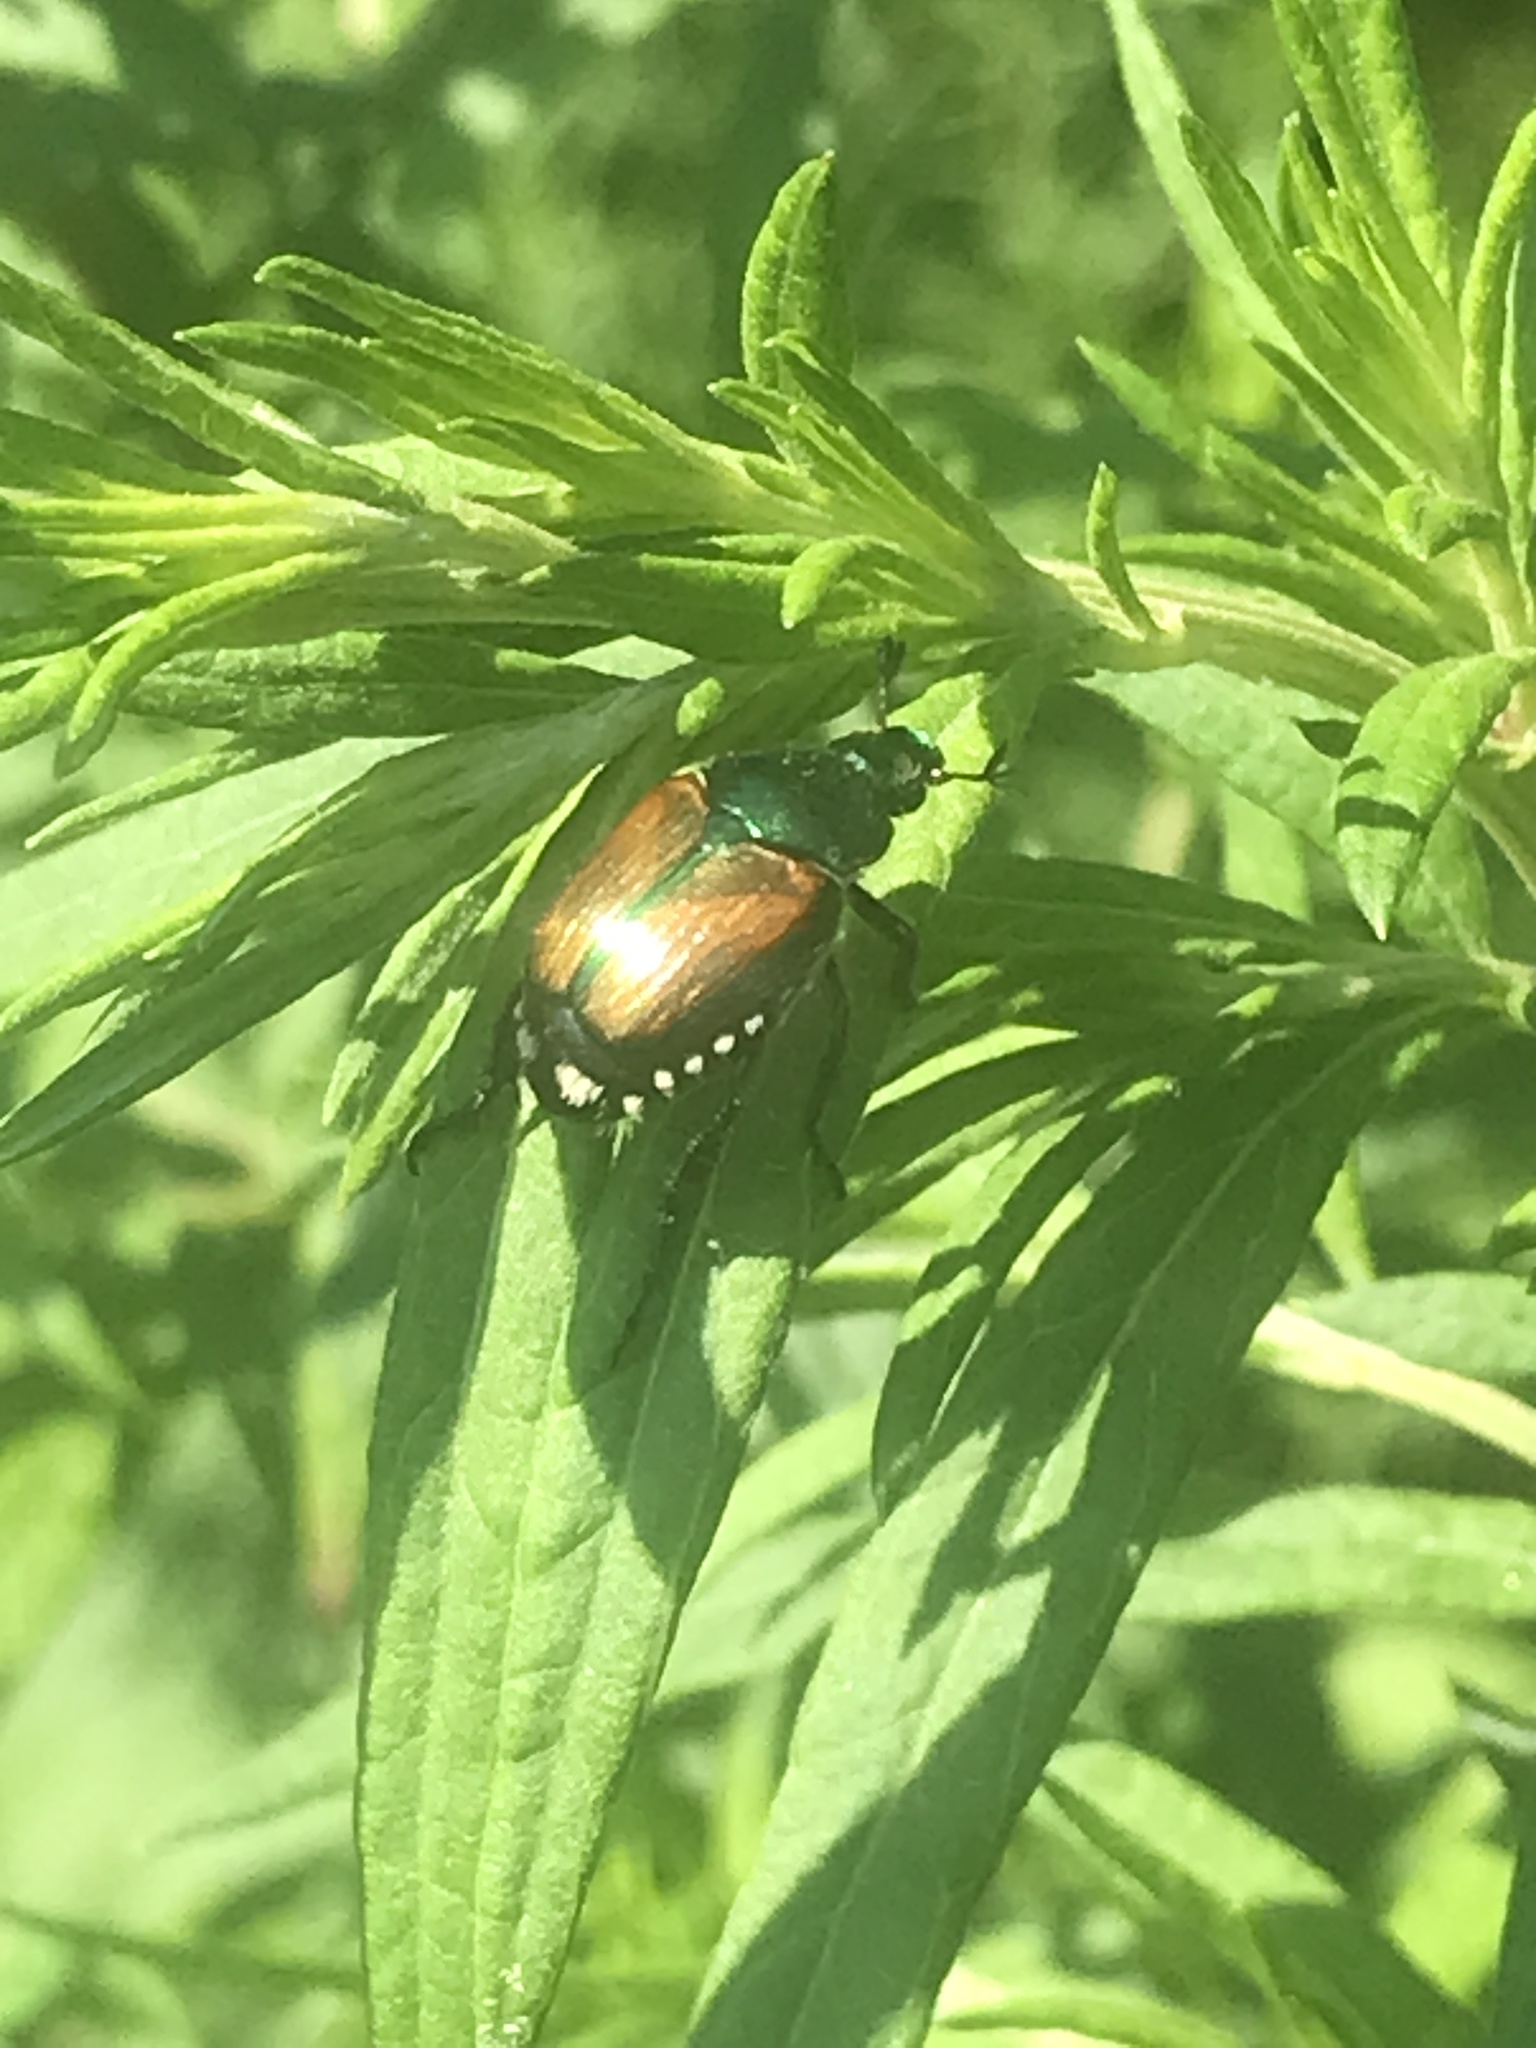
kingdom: Animalia
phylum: Arthropoda
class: Insecta
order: Coleoptera
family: Scarabaeidae
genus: Popillia
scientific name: Popillia japonica
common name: Japanese beetle
